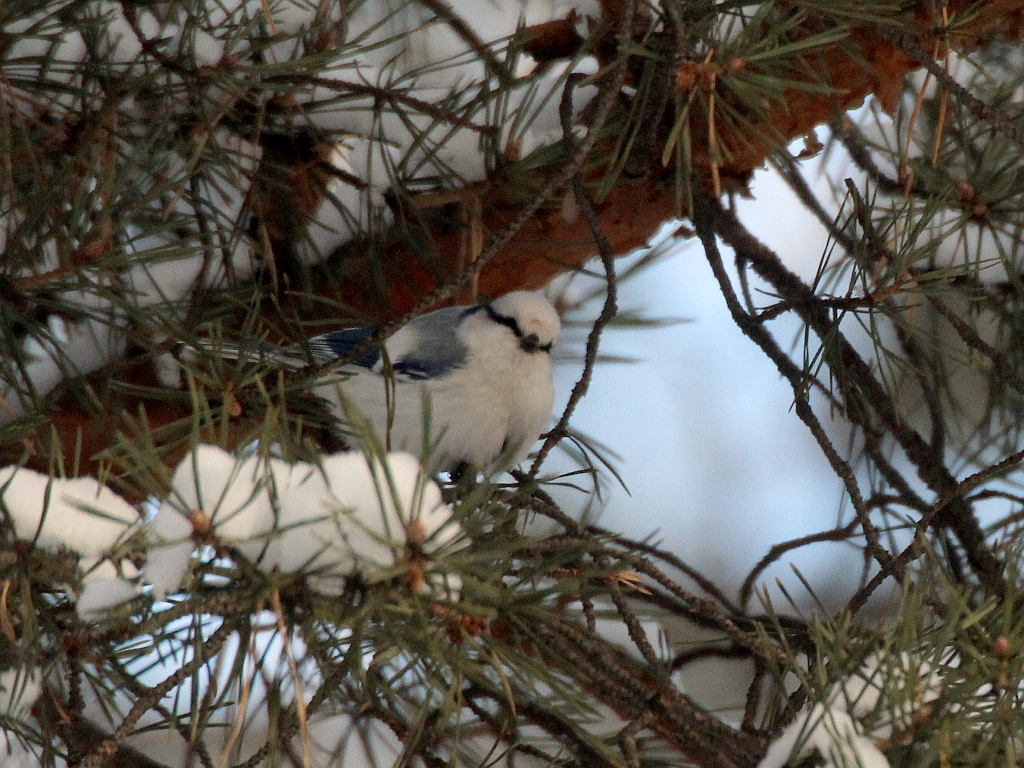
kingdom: Animalia
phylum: Chordata
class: Aves
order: Passeriformes
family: Paridae
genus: Cyanistes
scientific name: Cyanistes cyanus
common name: Azure tit
